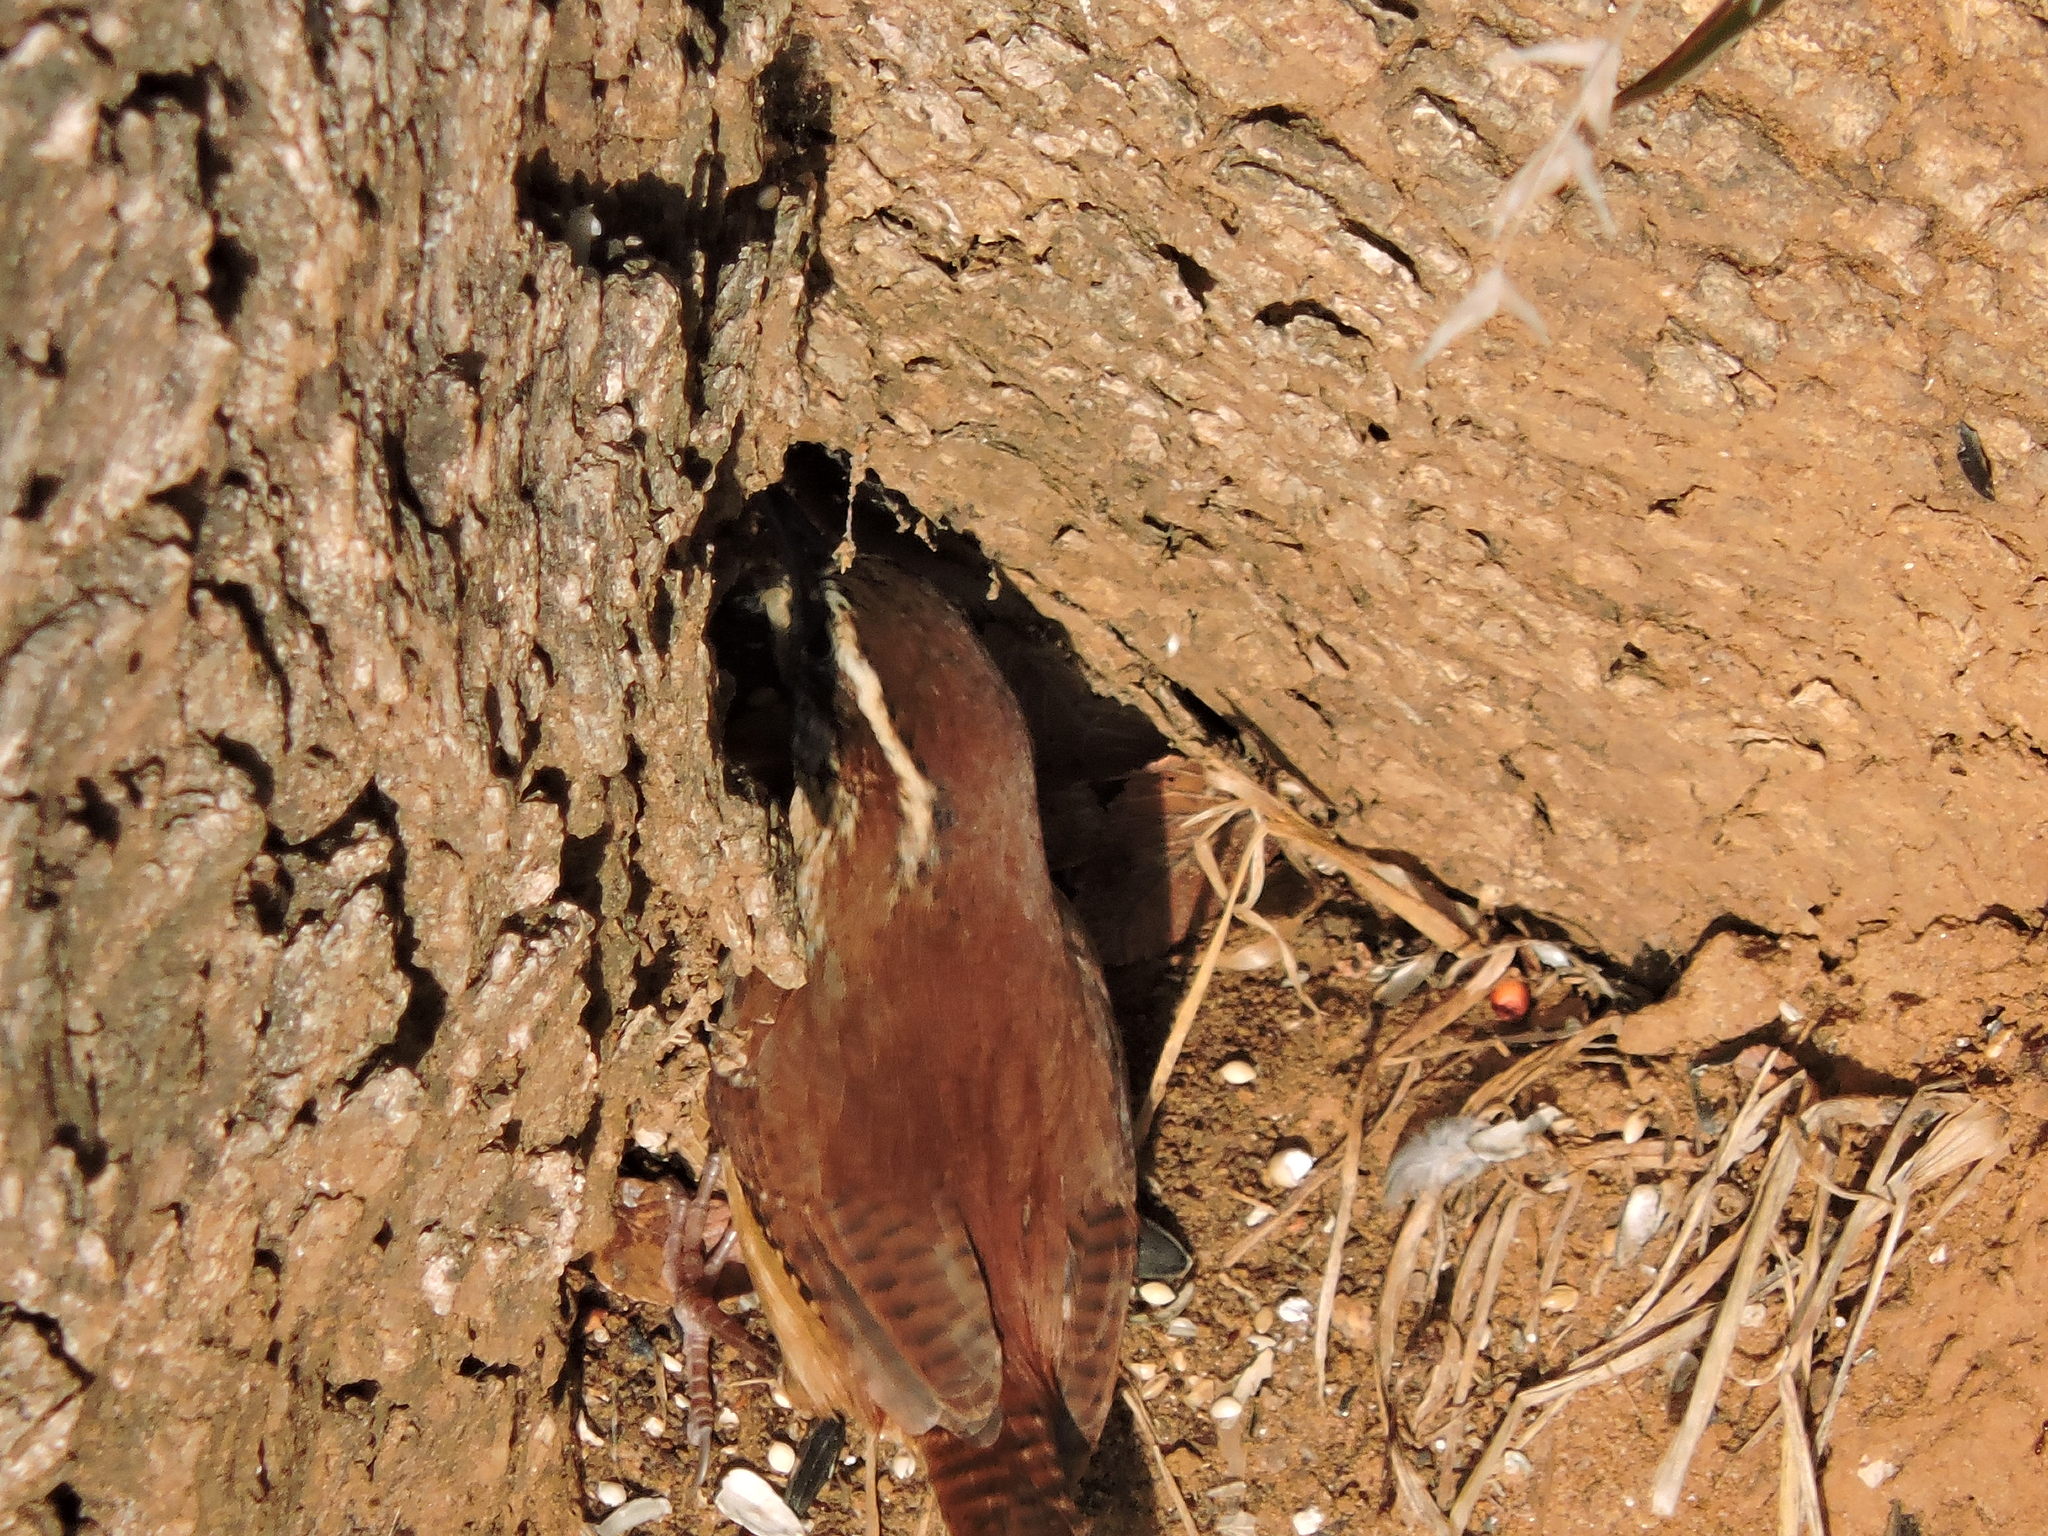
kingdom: Animalia
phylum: Chordata
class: Aves
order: Passeriformes
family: Troglodytidae
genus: Thryothorus
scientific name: Thryothorus ludovicianus
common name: Carolina wren
